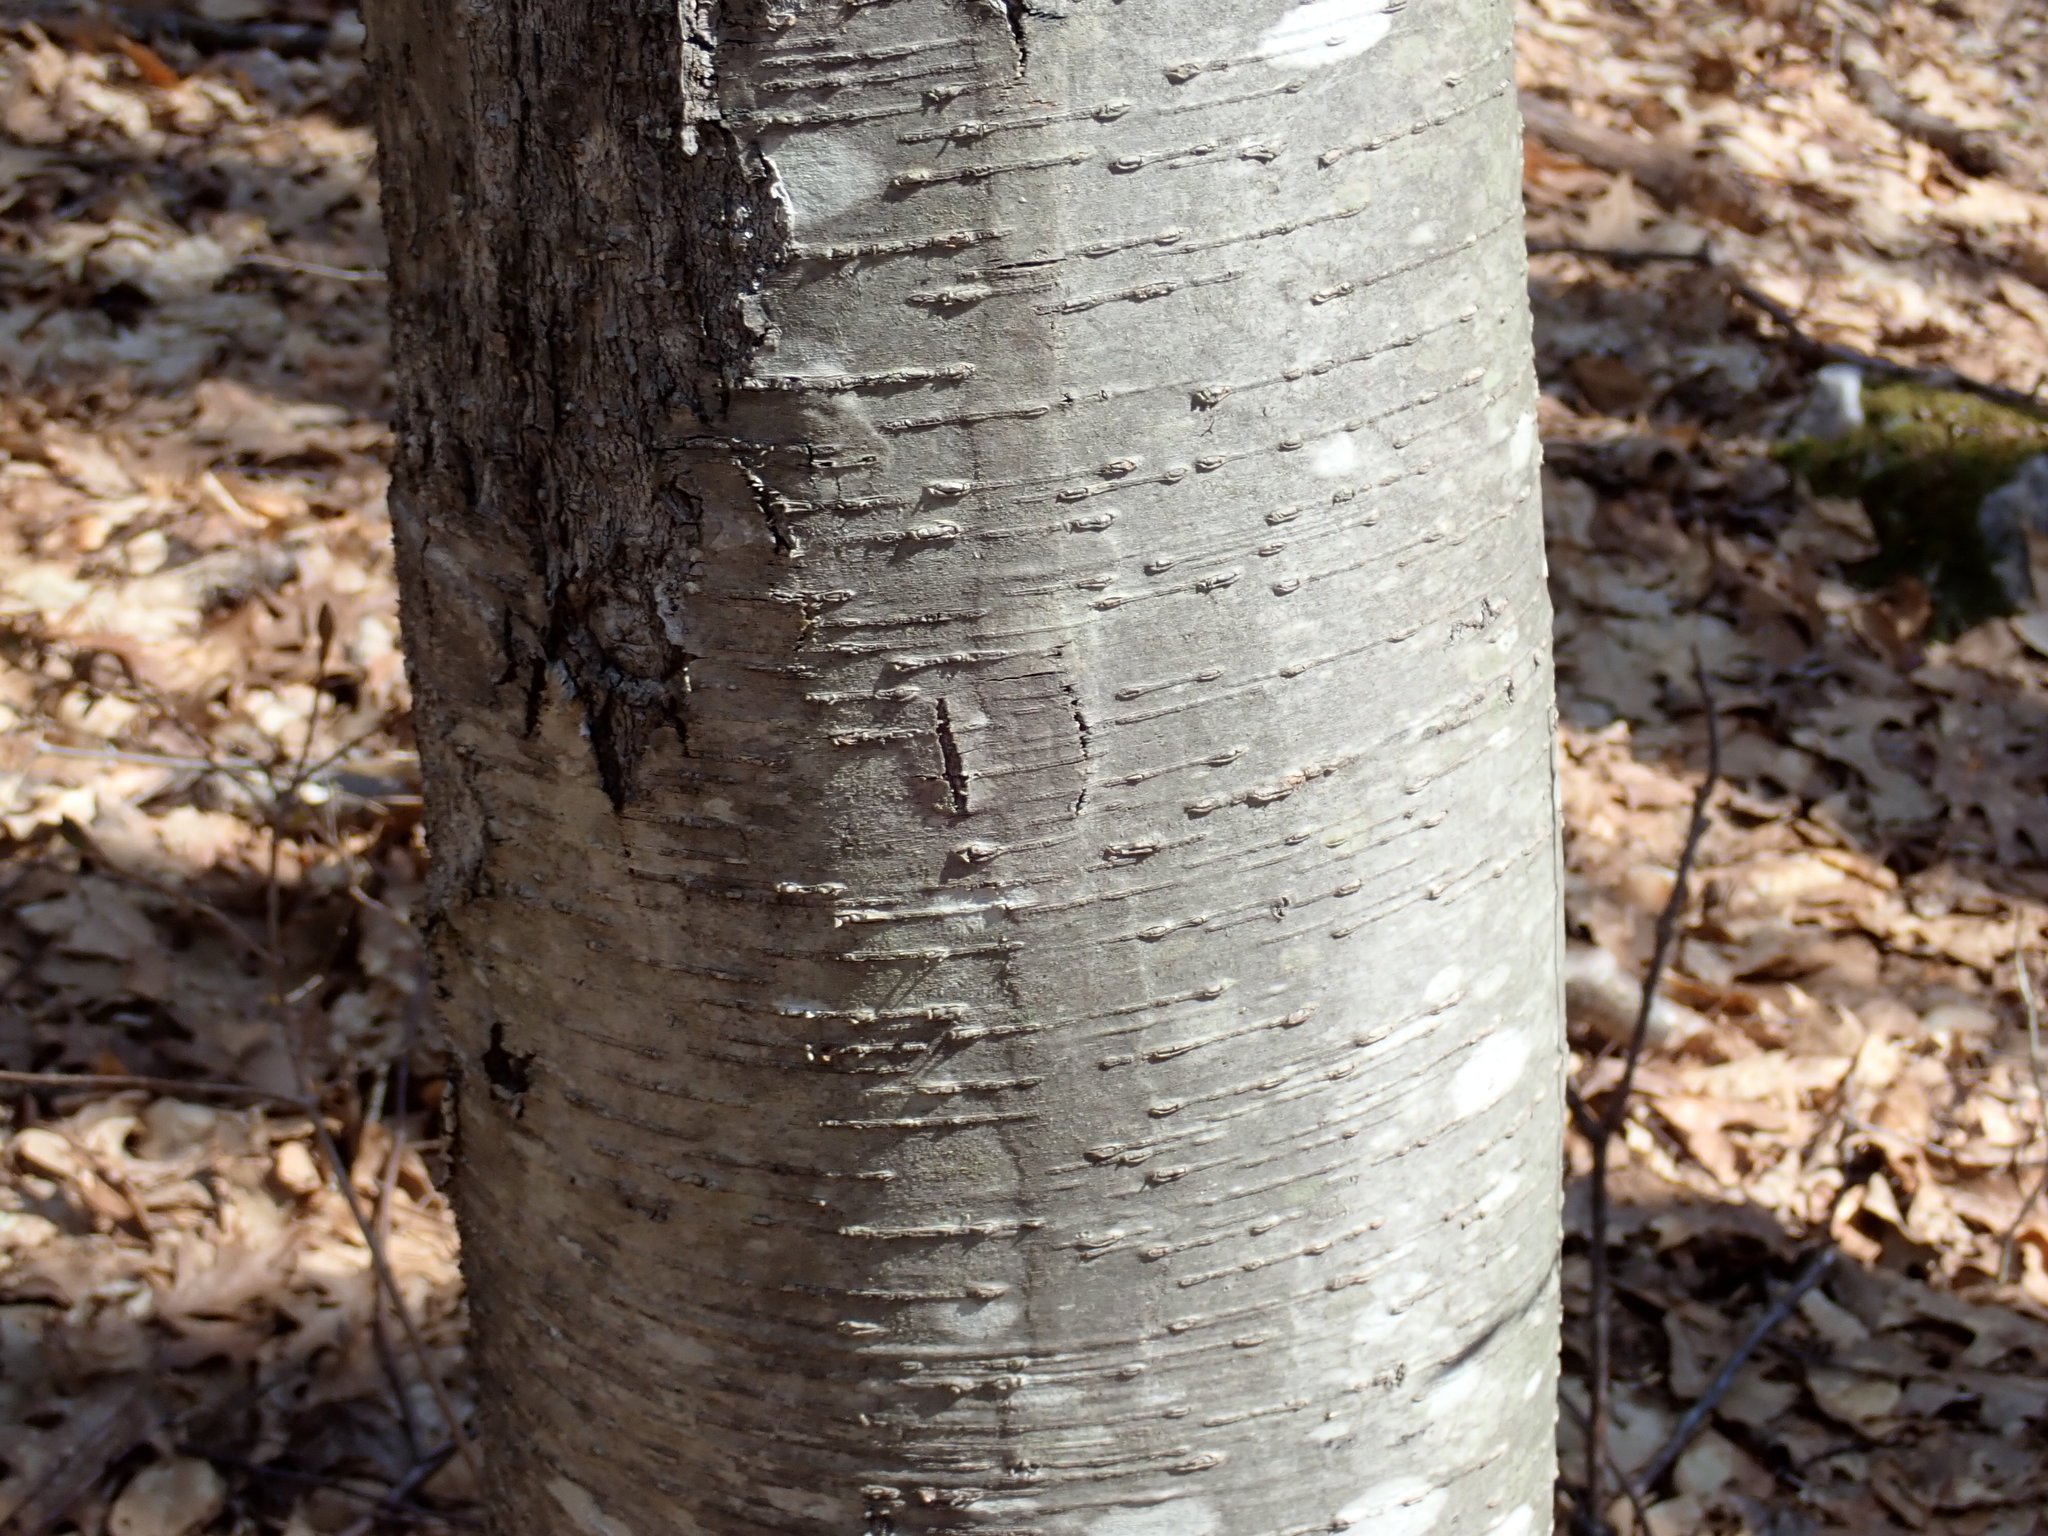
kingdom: Plantae
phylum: Tracheophyta
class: Magnoliopsida
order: Fagales
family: Betulaceae
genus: Betula
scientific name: Betula lenta
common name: Black birch
